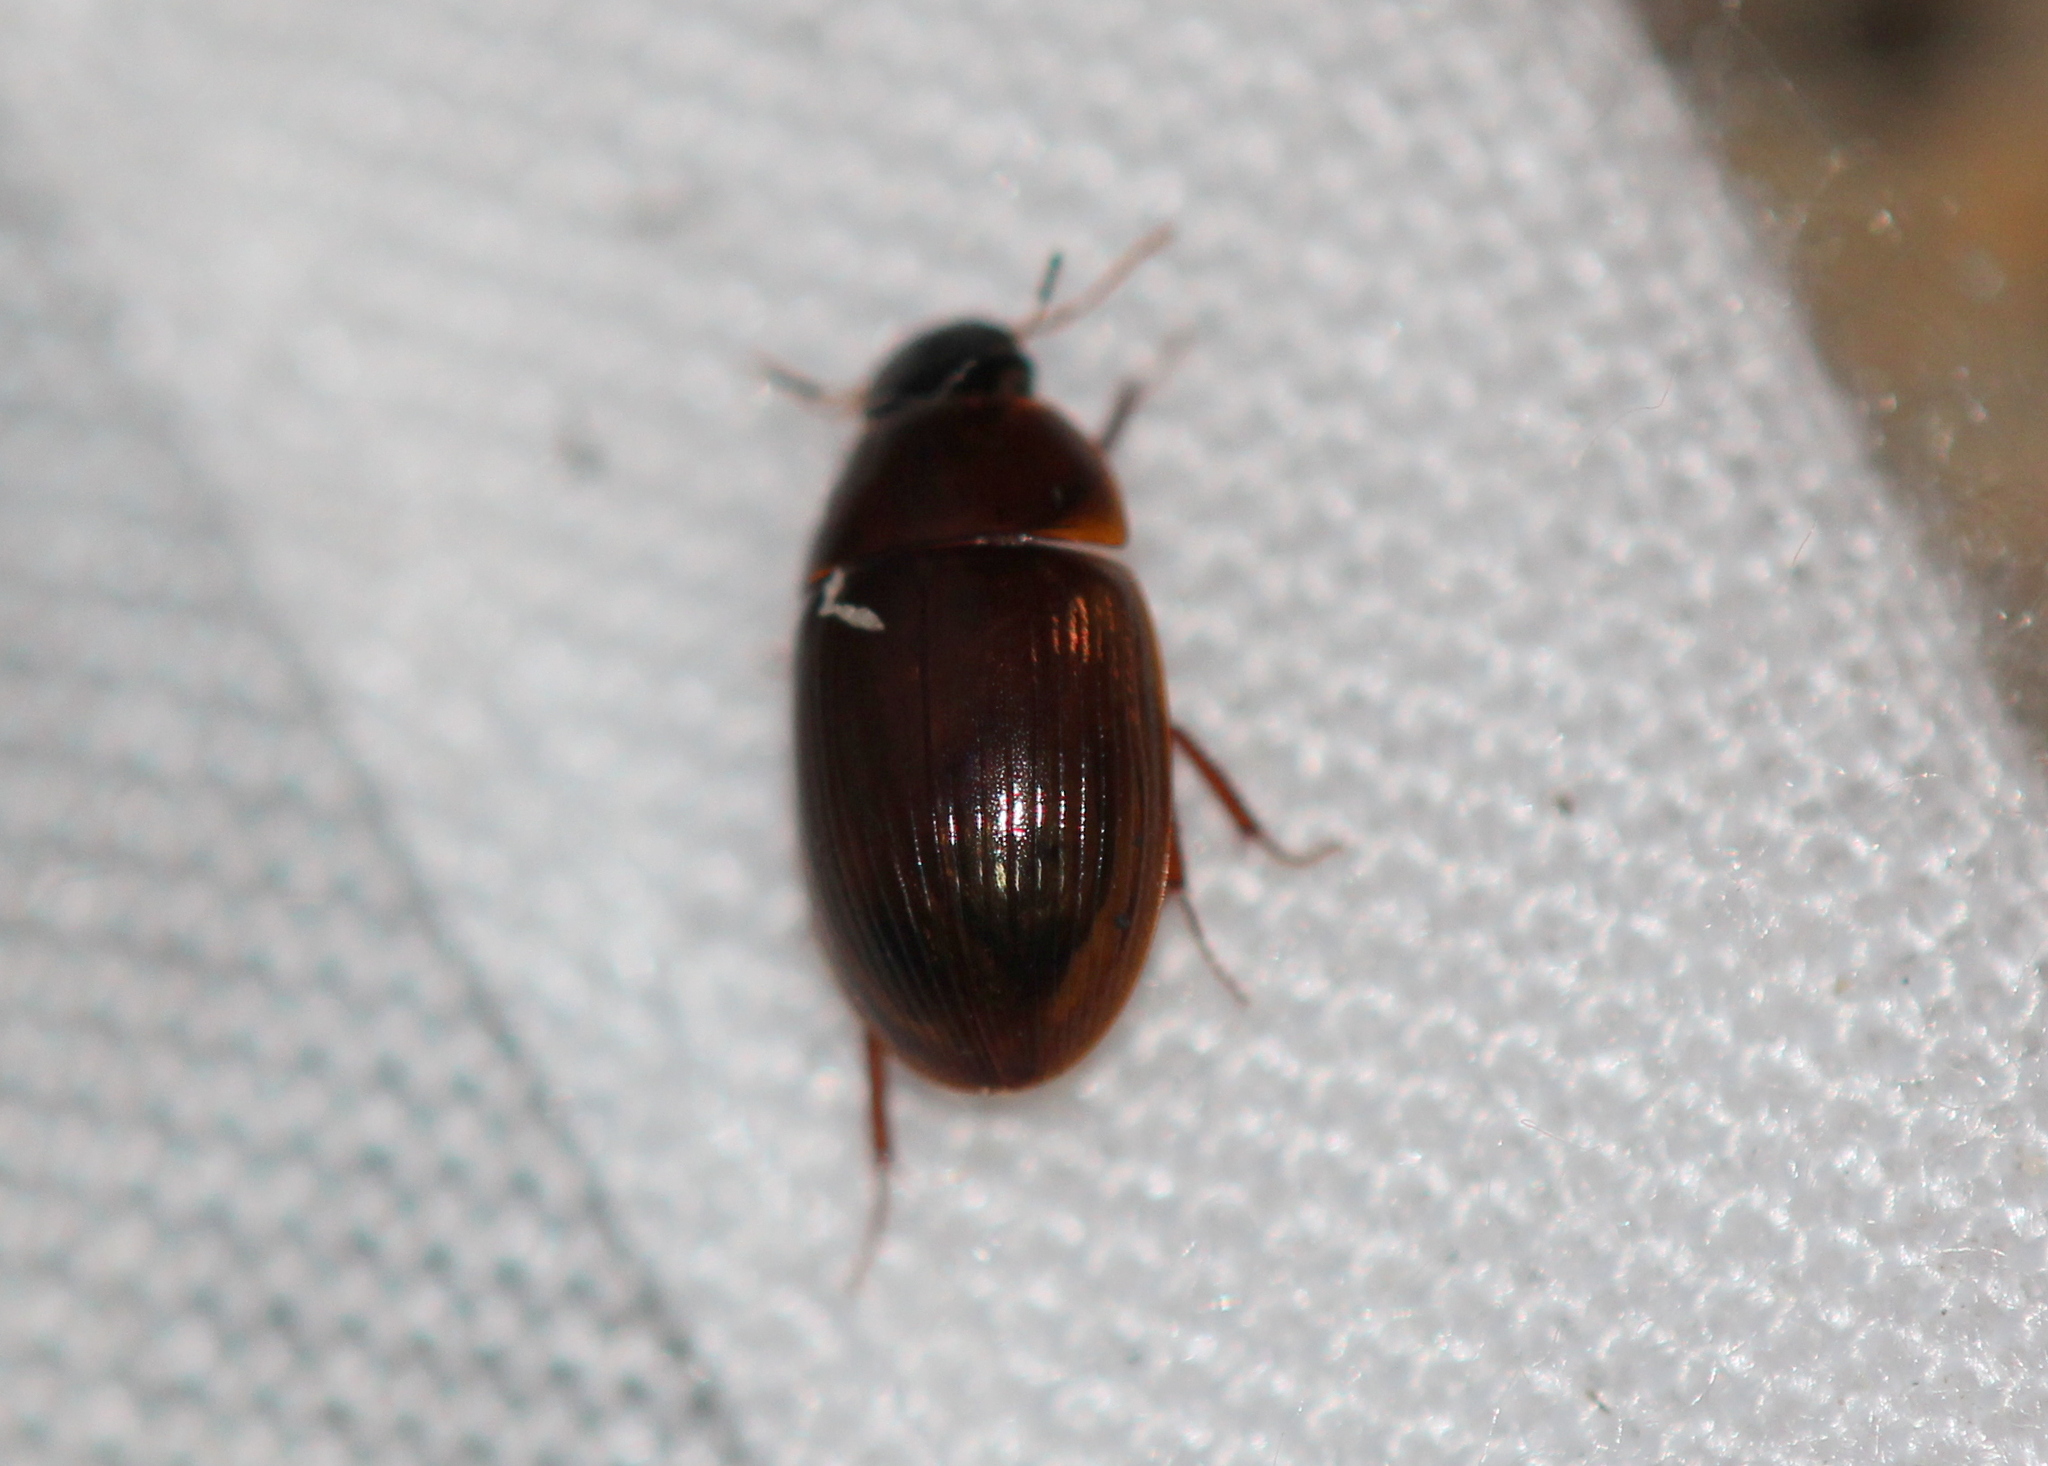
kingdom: Animalia
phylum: Arthropoda
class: Insecta
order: Coleoptera
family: Hydrophilidae
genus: Cymbiodyta
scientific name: Cymbiodyta bifida
